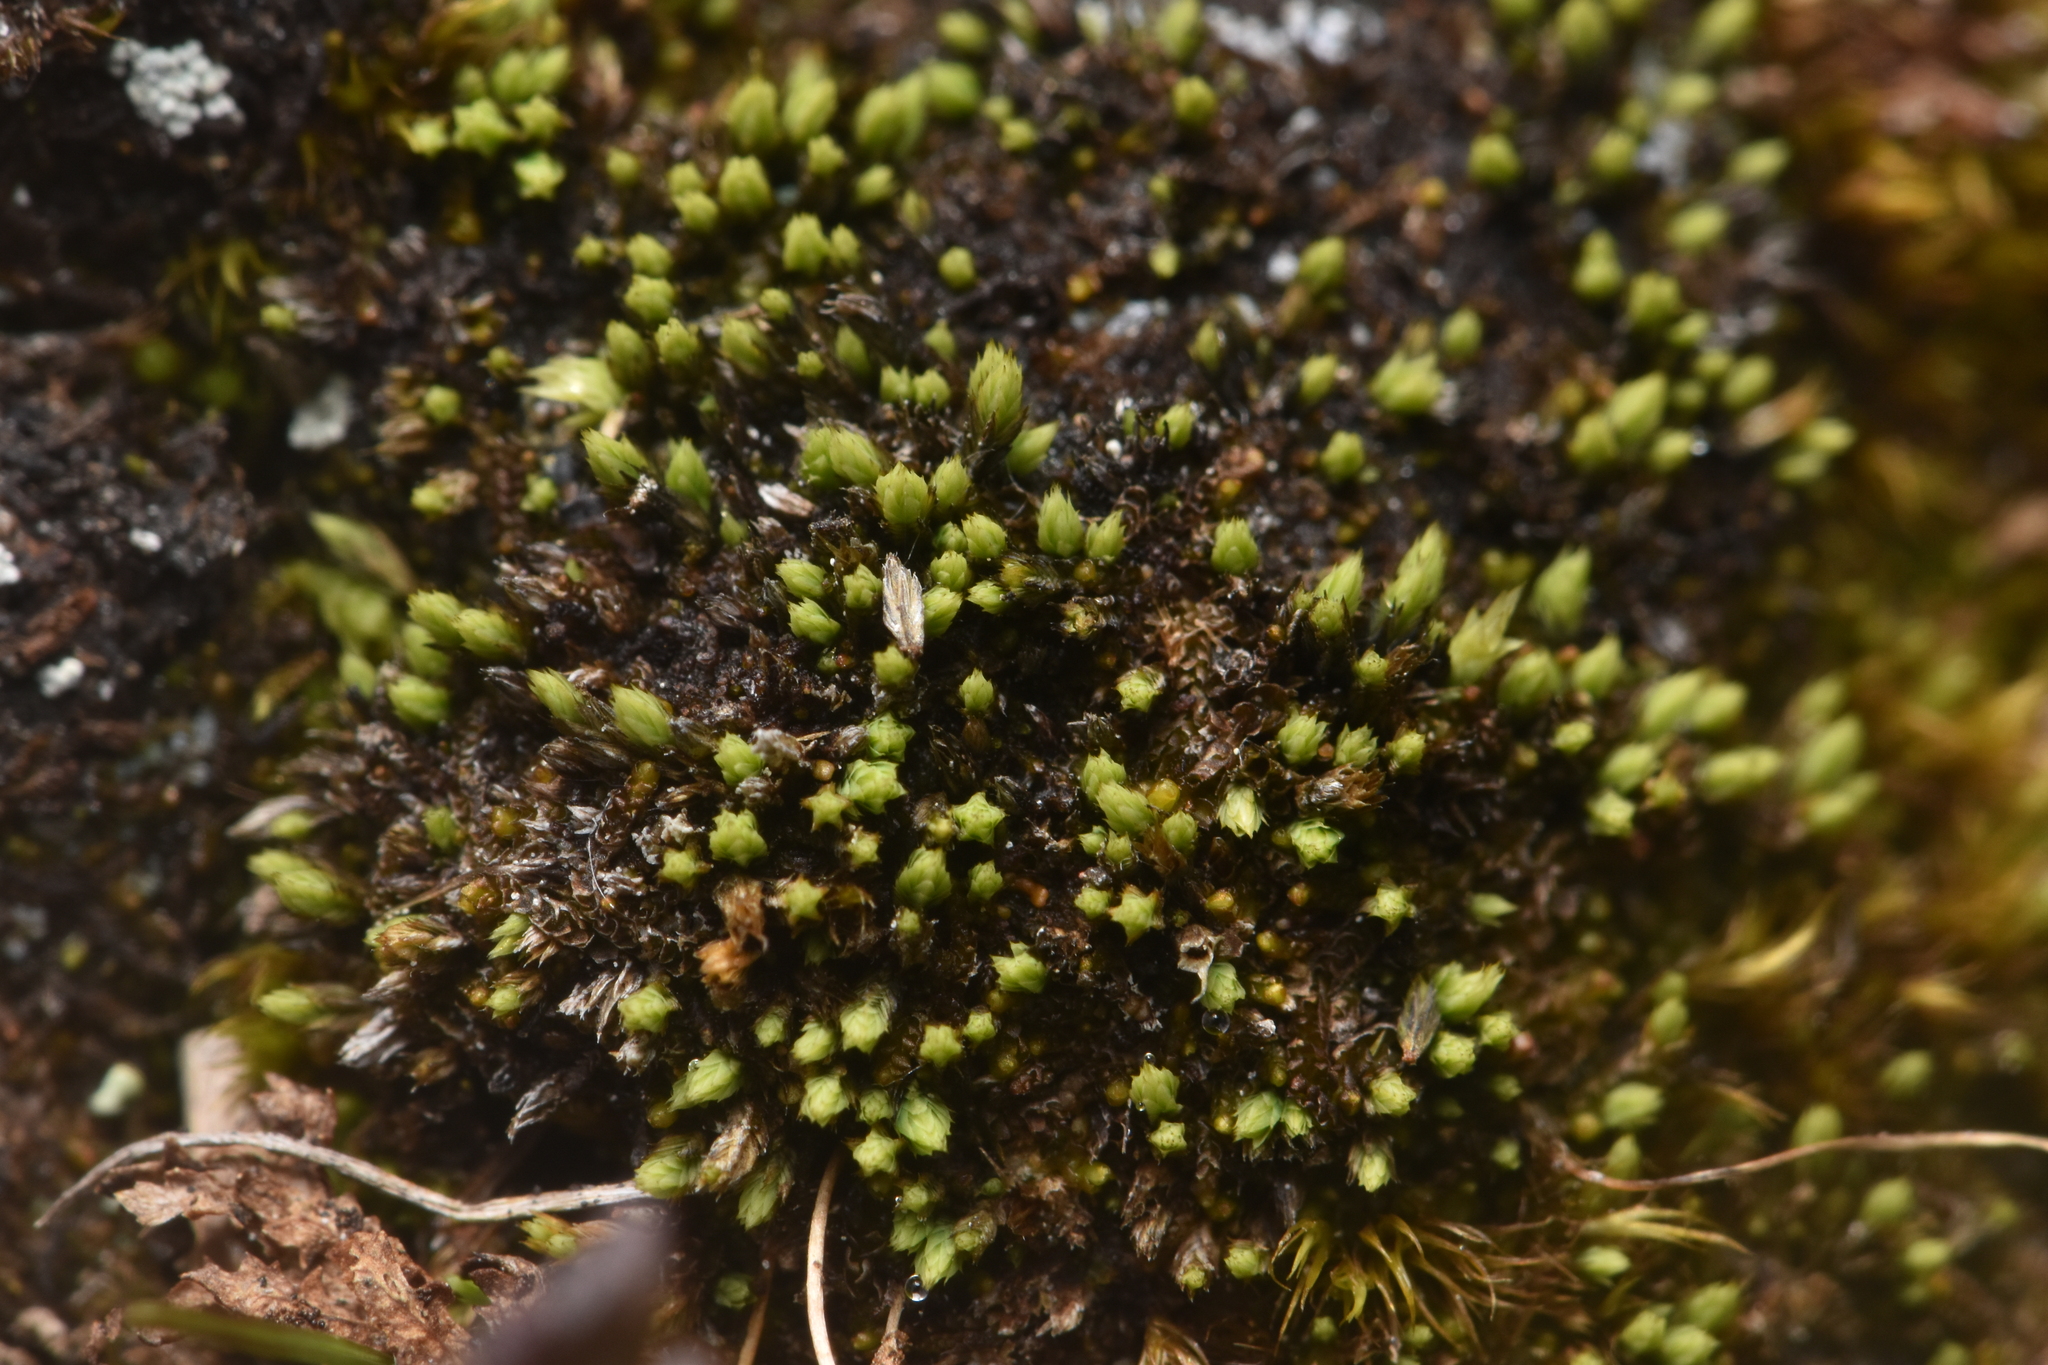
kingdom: Plantae
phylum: Bryophyta
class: Bryopsida
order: Bartramiales
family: Bartramiaceae
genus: Conostomum
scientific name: Conostomum tetragonum
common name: Helmet moss
